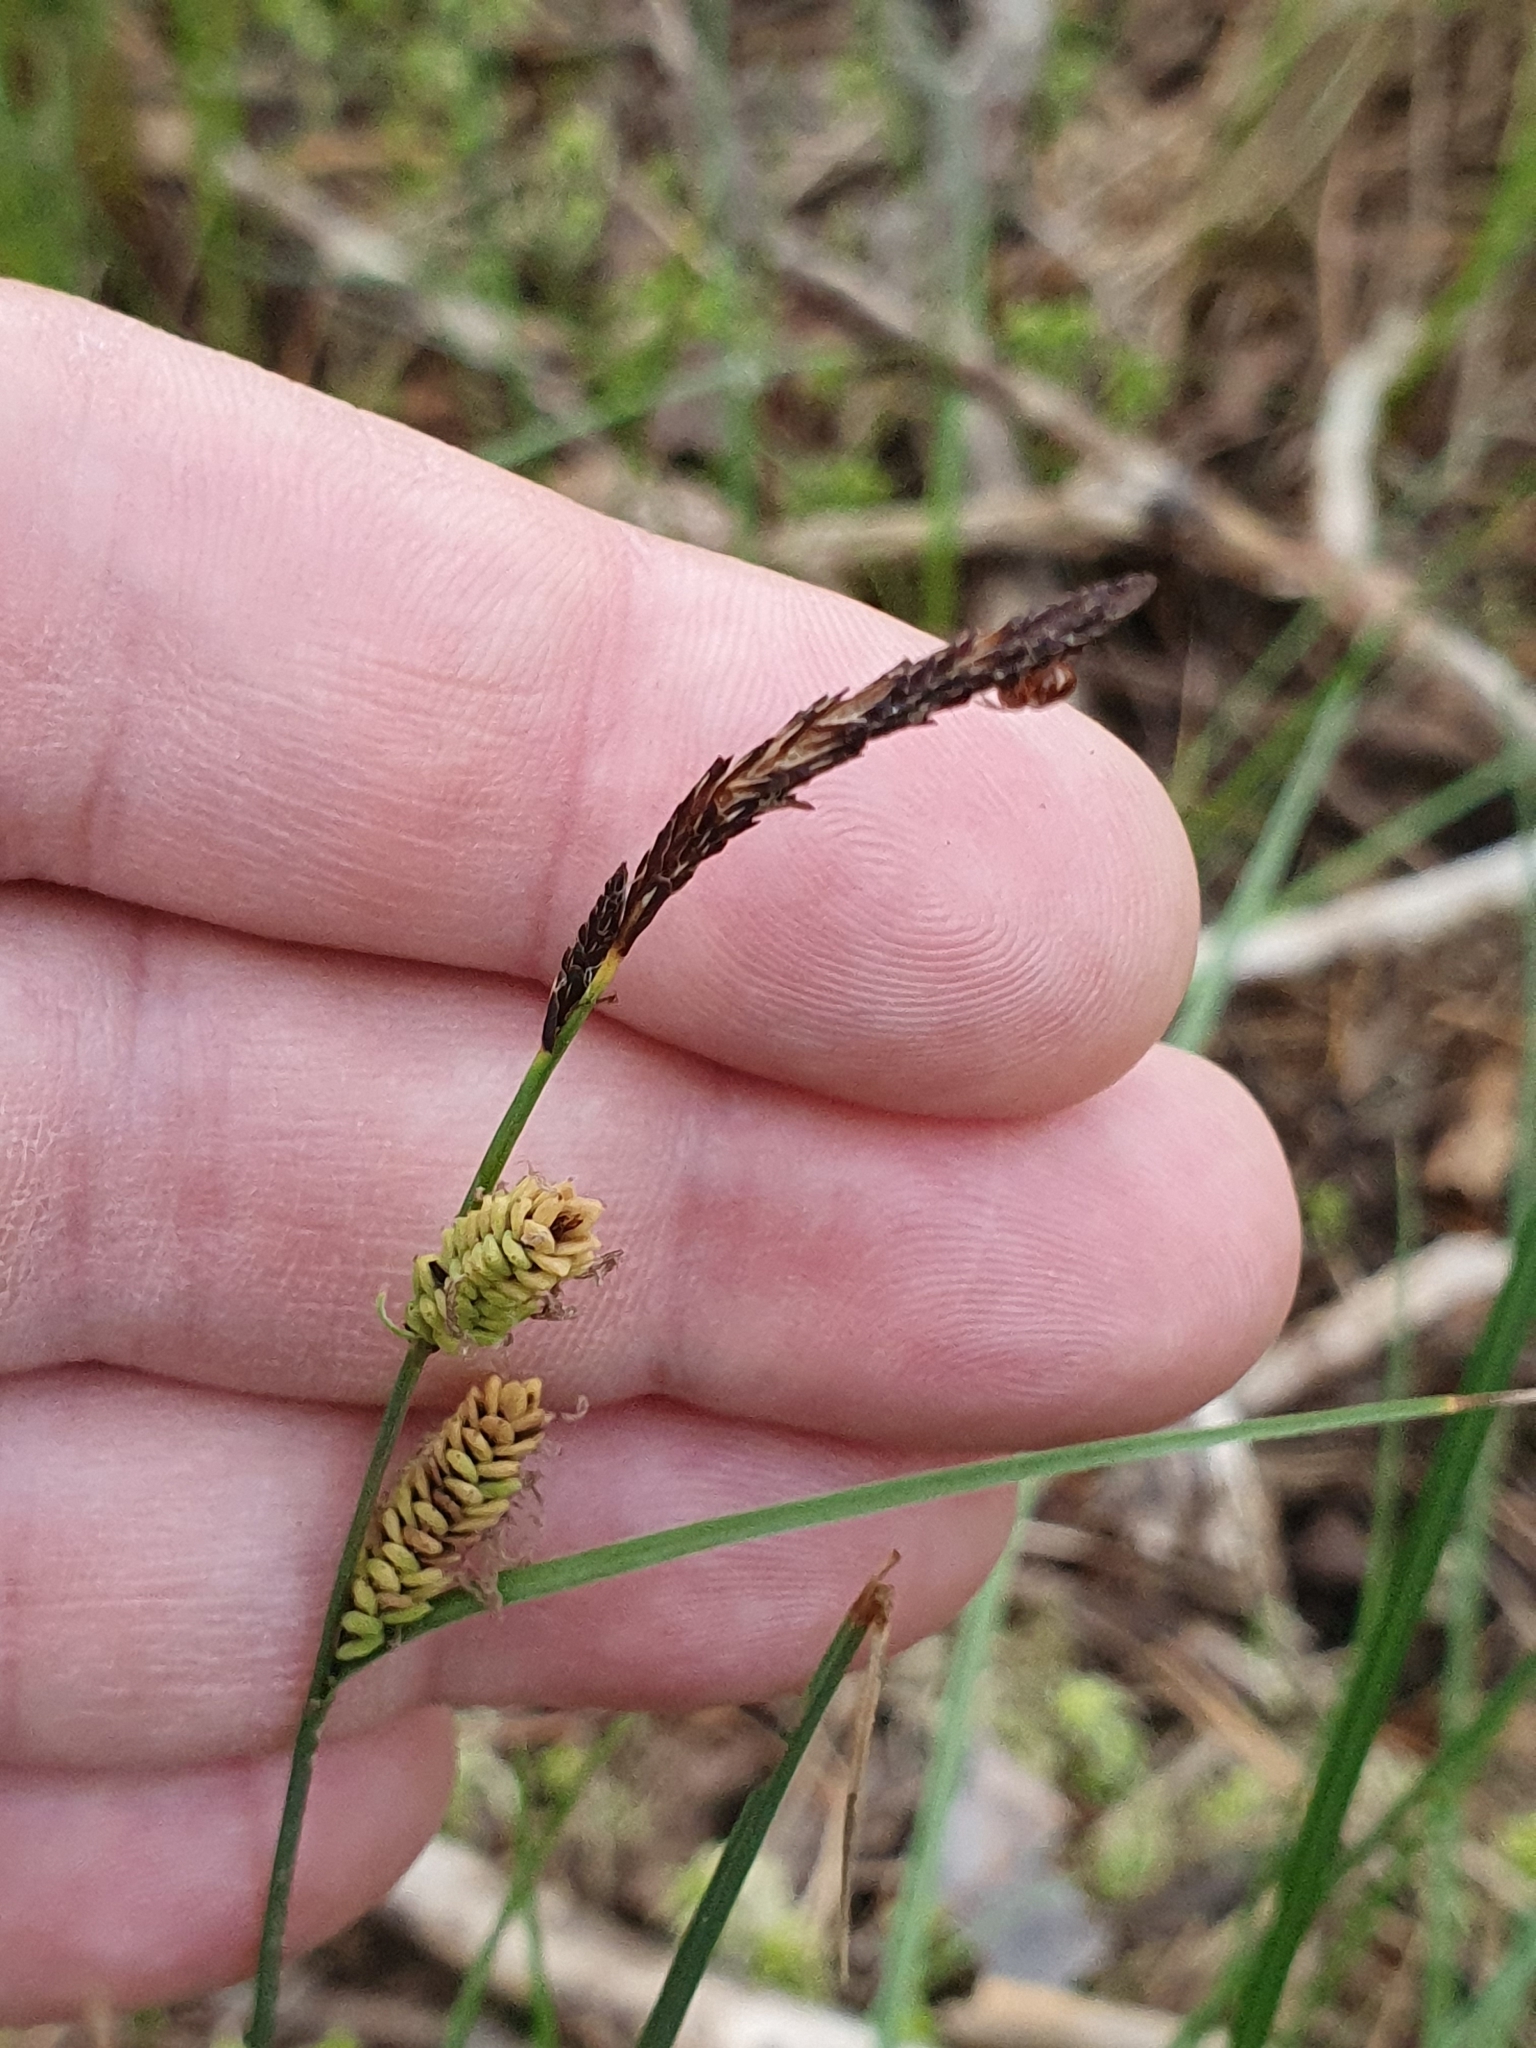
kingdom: Plantae
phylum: Tracheophyta
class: Liliopsida
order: Poales
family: Cyperaceae
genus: Carex
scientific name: Carex nigra
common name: Common sedge
